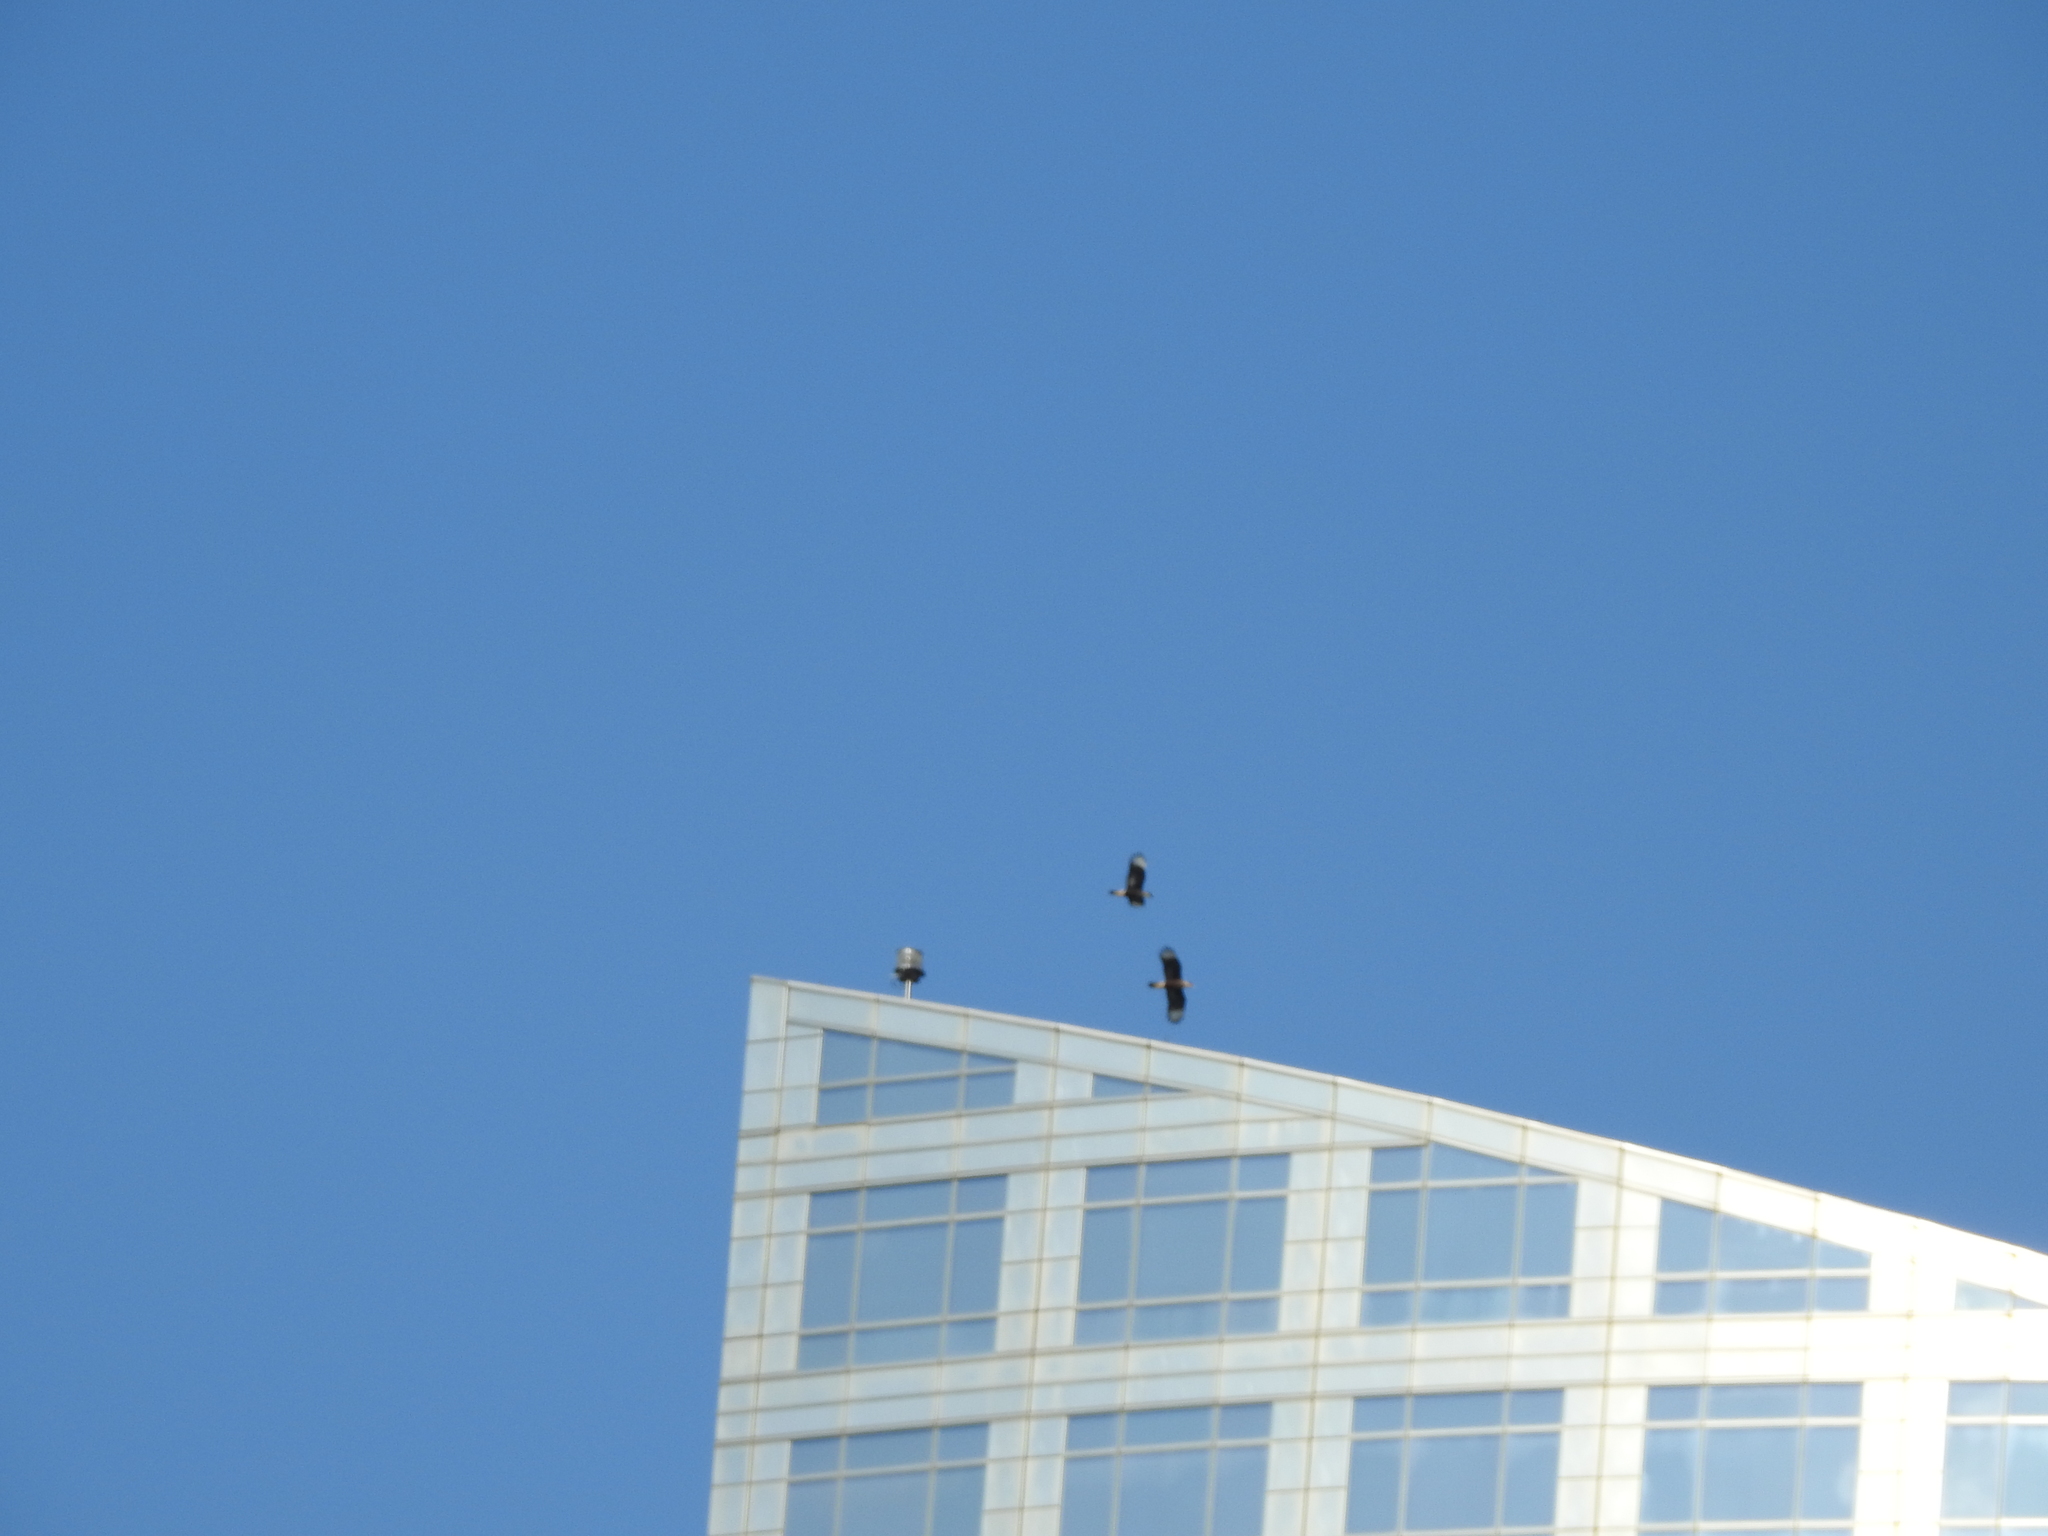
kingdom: Animalia
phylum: Chordata
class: Aves
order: Falconiformes
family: Falconidae
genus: Caracara
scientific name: Caracara plancus
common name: Southern caracara
